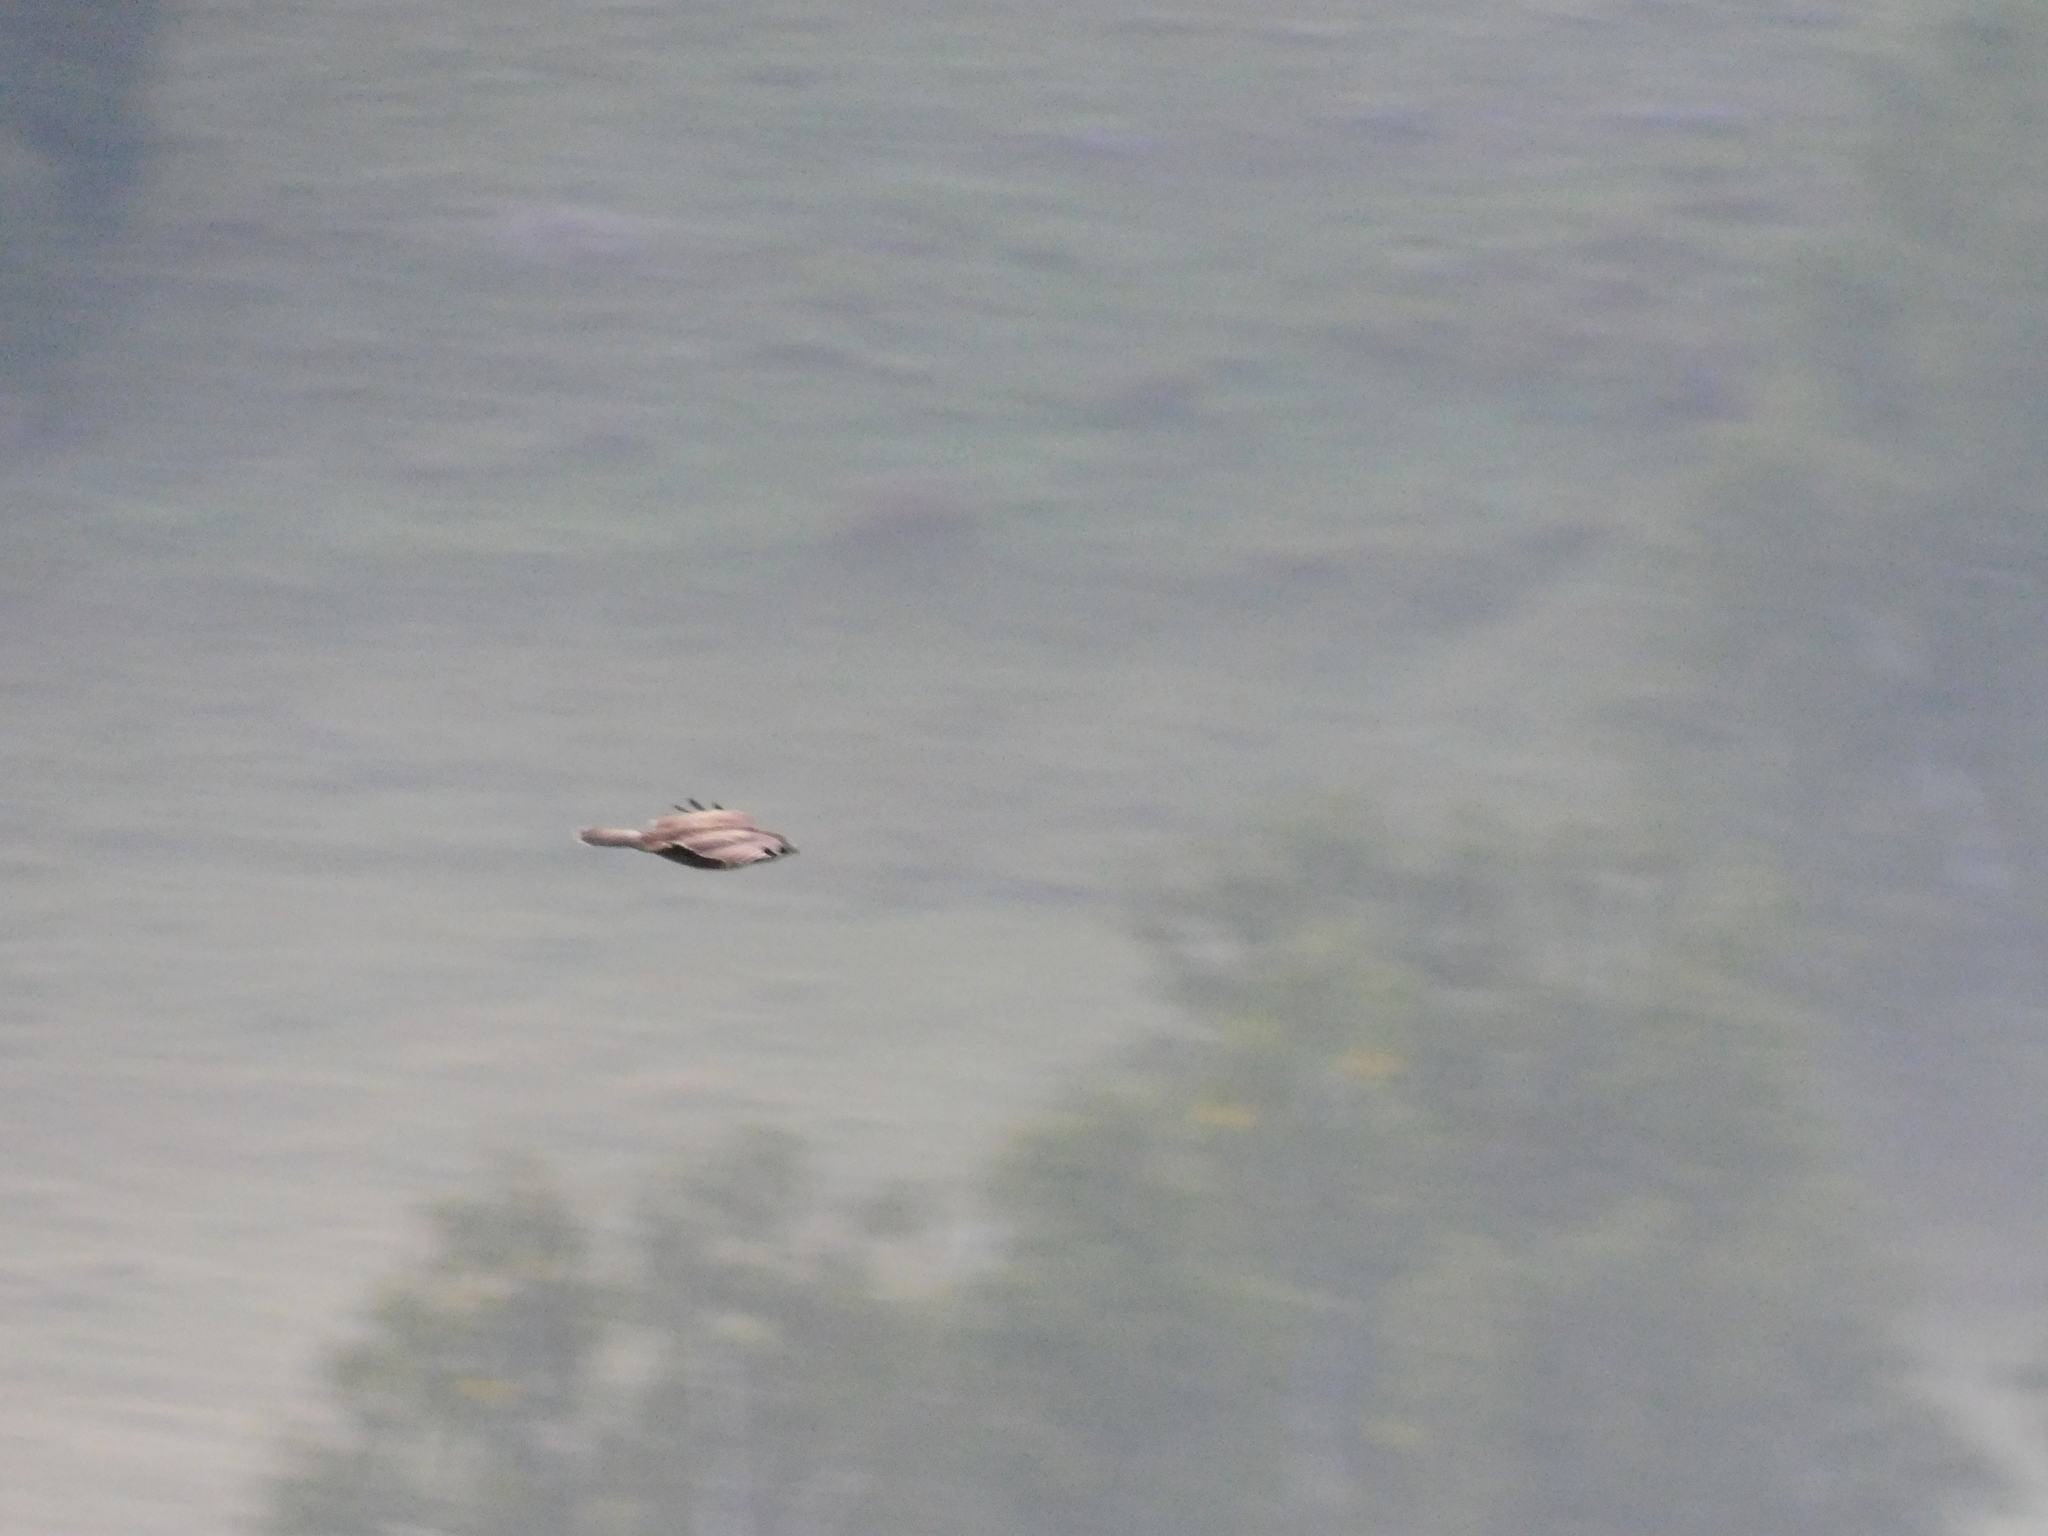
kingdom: Animalia
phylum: Chordata
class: Aves
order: Accipitriformes
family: Accipitridae
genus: Buteo
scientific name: Buteo buteo
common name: Common buzzard
